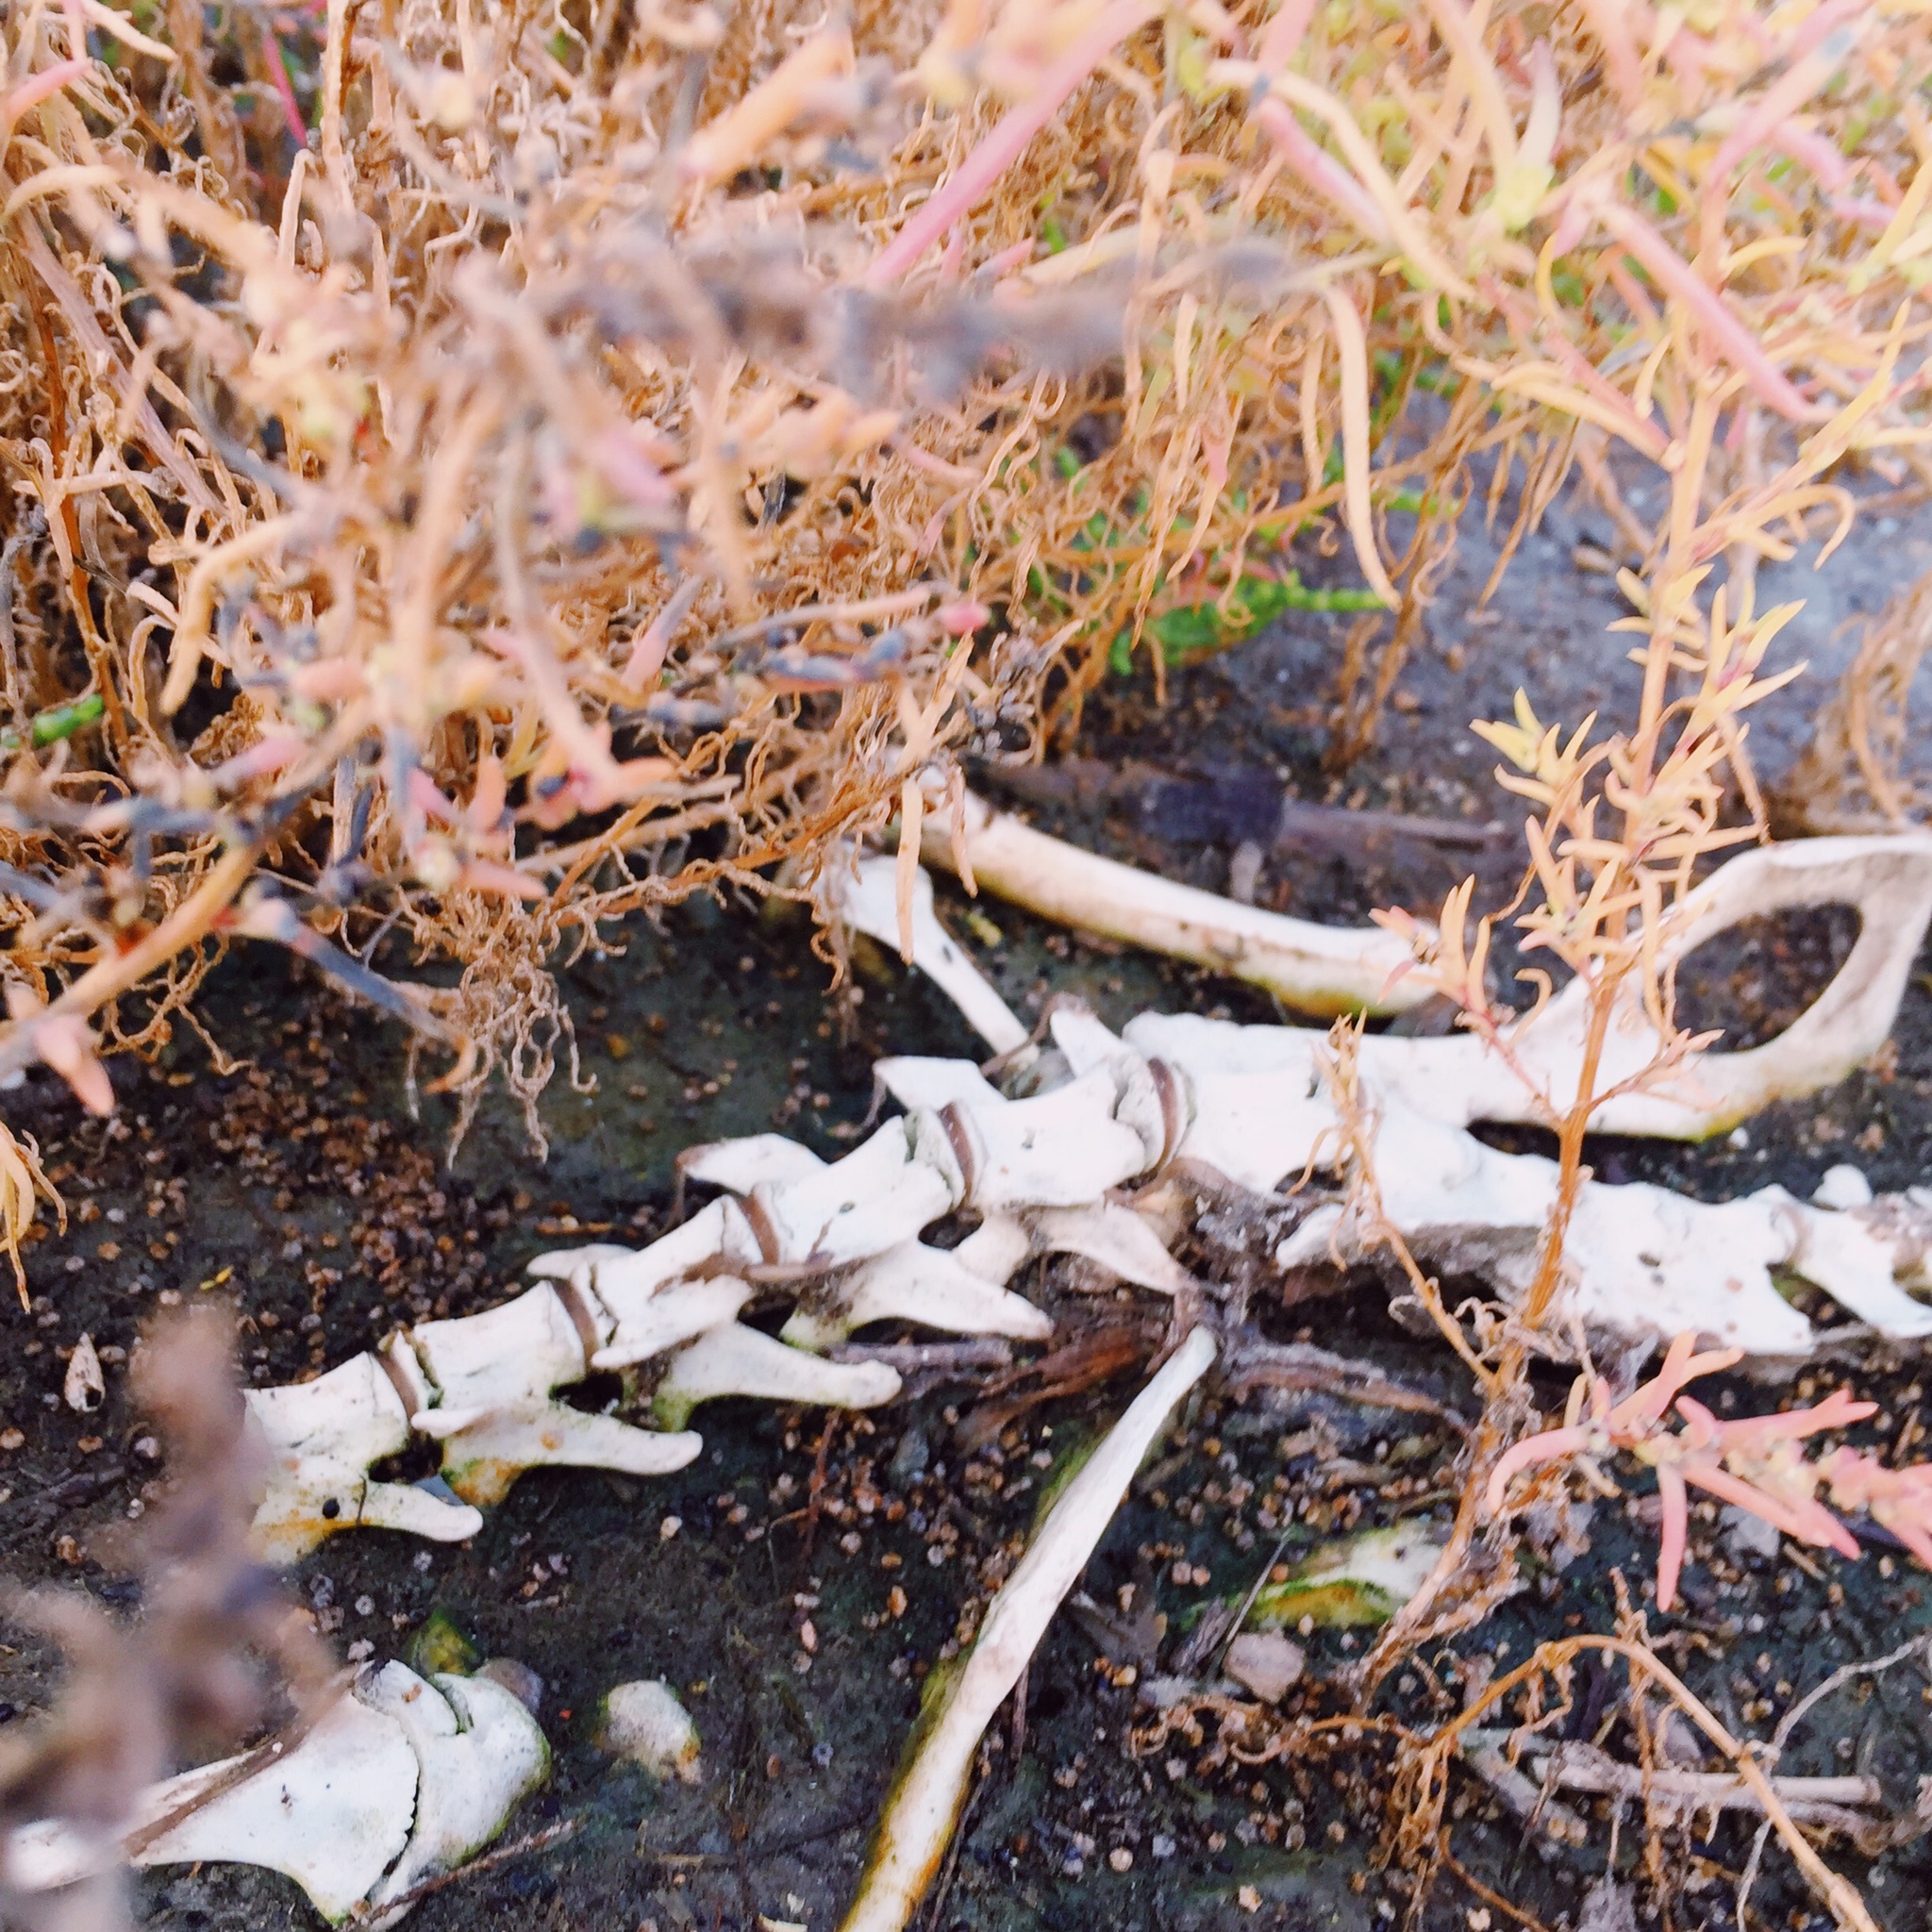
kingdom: Animalia
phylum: Chordata
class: Mammalia
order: Rodentia
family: Myocastoridae
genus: Myocastor
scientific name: Myocastor coypus
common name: Coypu
